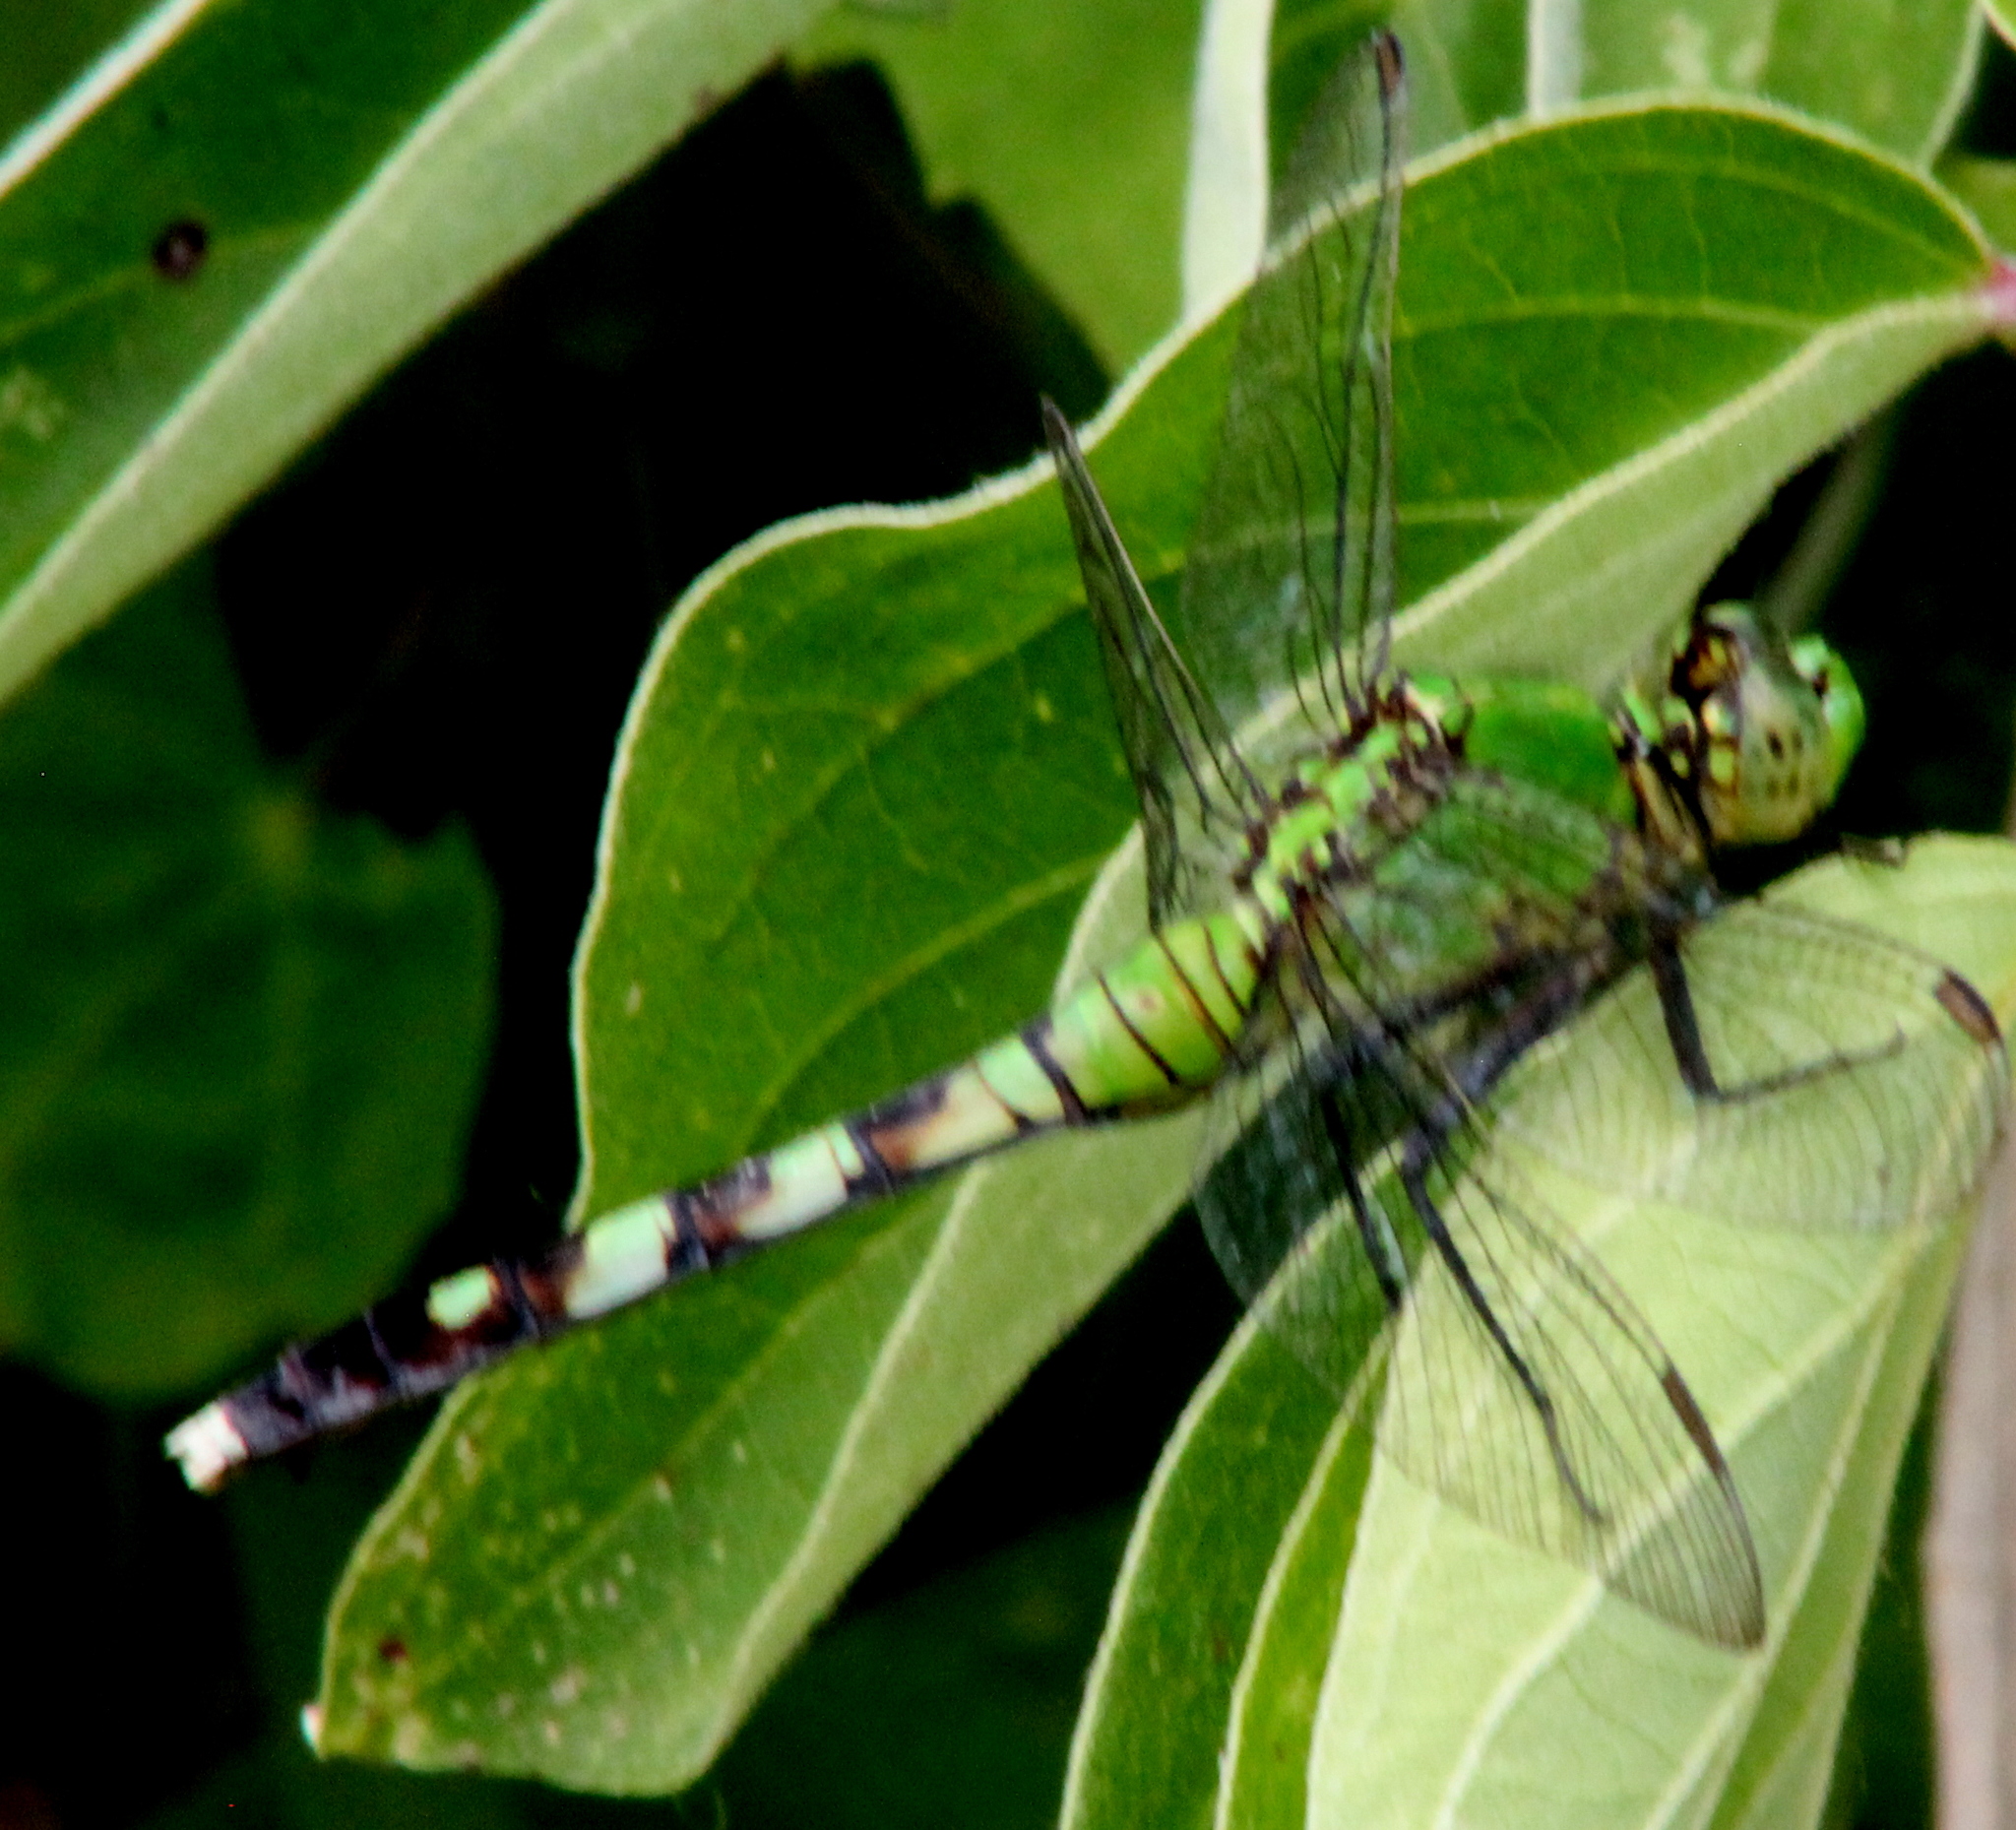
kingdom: Animalia
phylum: Arthropoda
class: Insecta
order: Odonata
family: Libellulidae
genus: Erythemis
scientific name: Erythemis simplicicollis
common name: Eastern pondhawk
